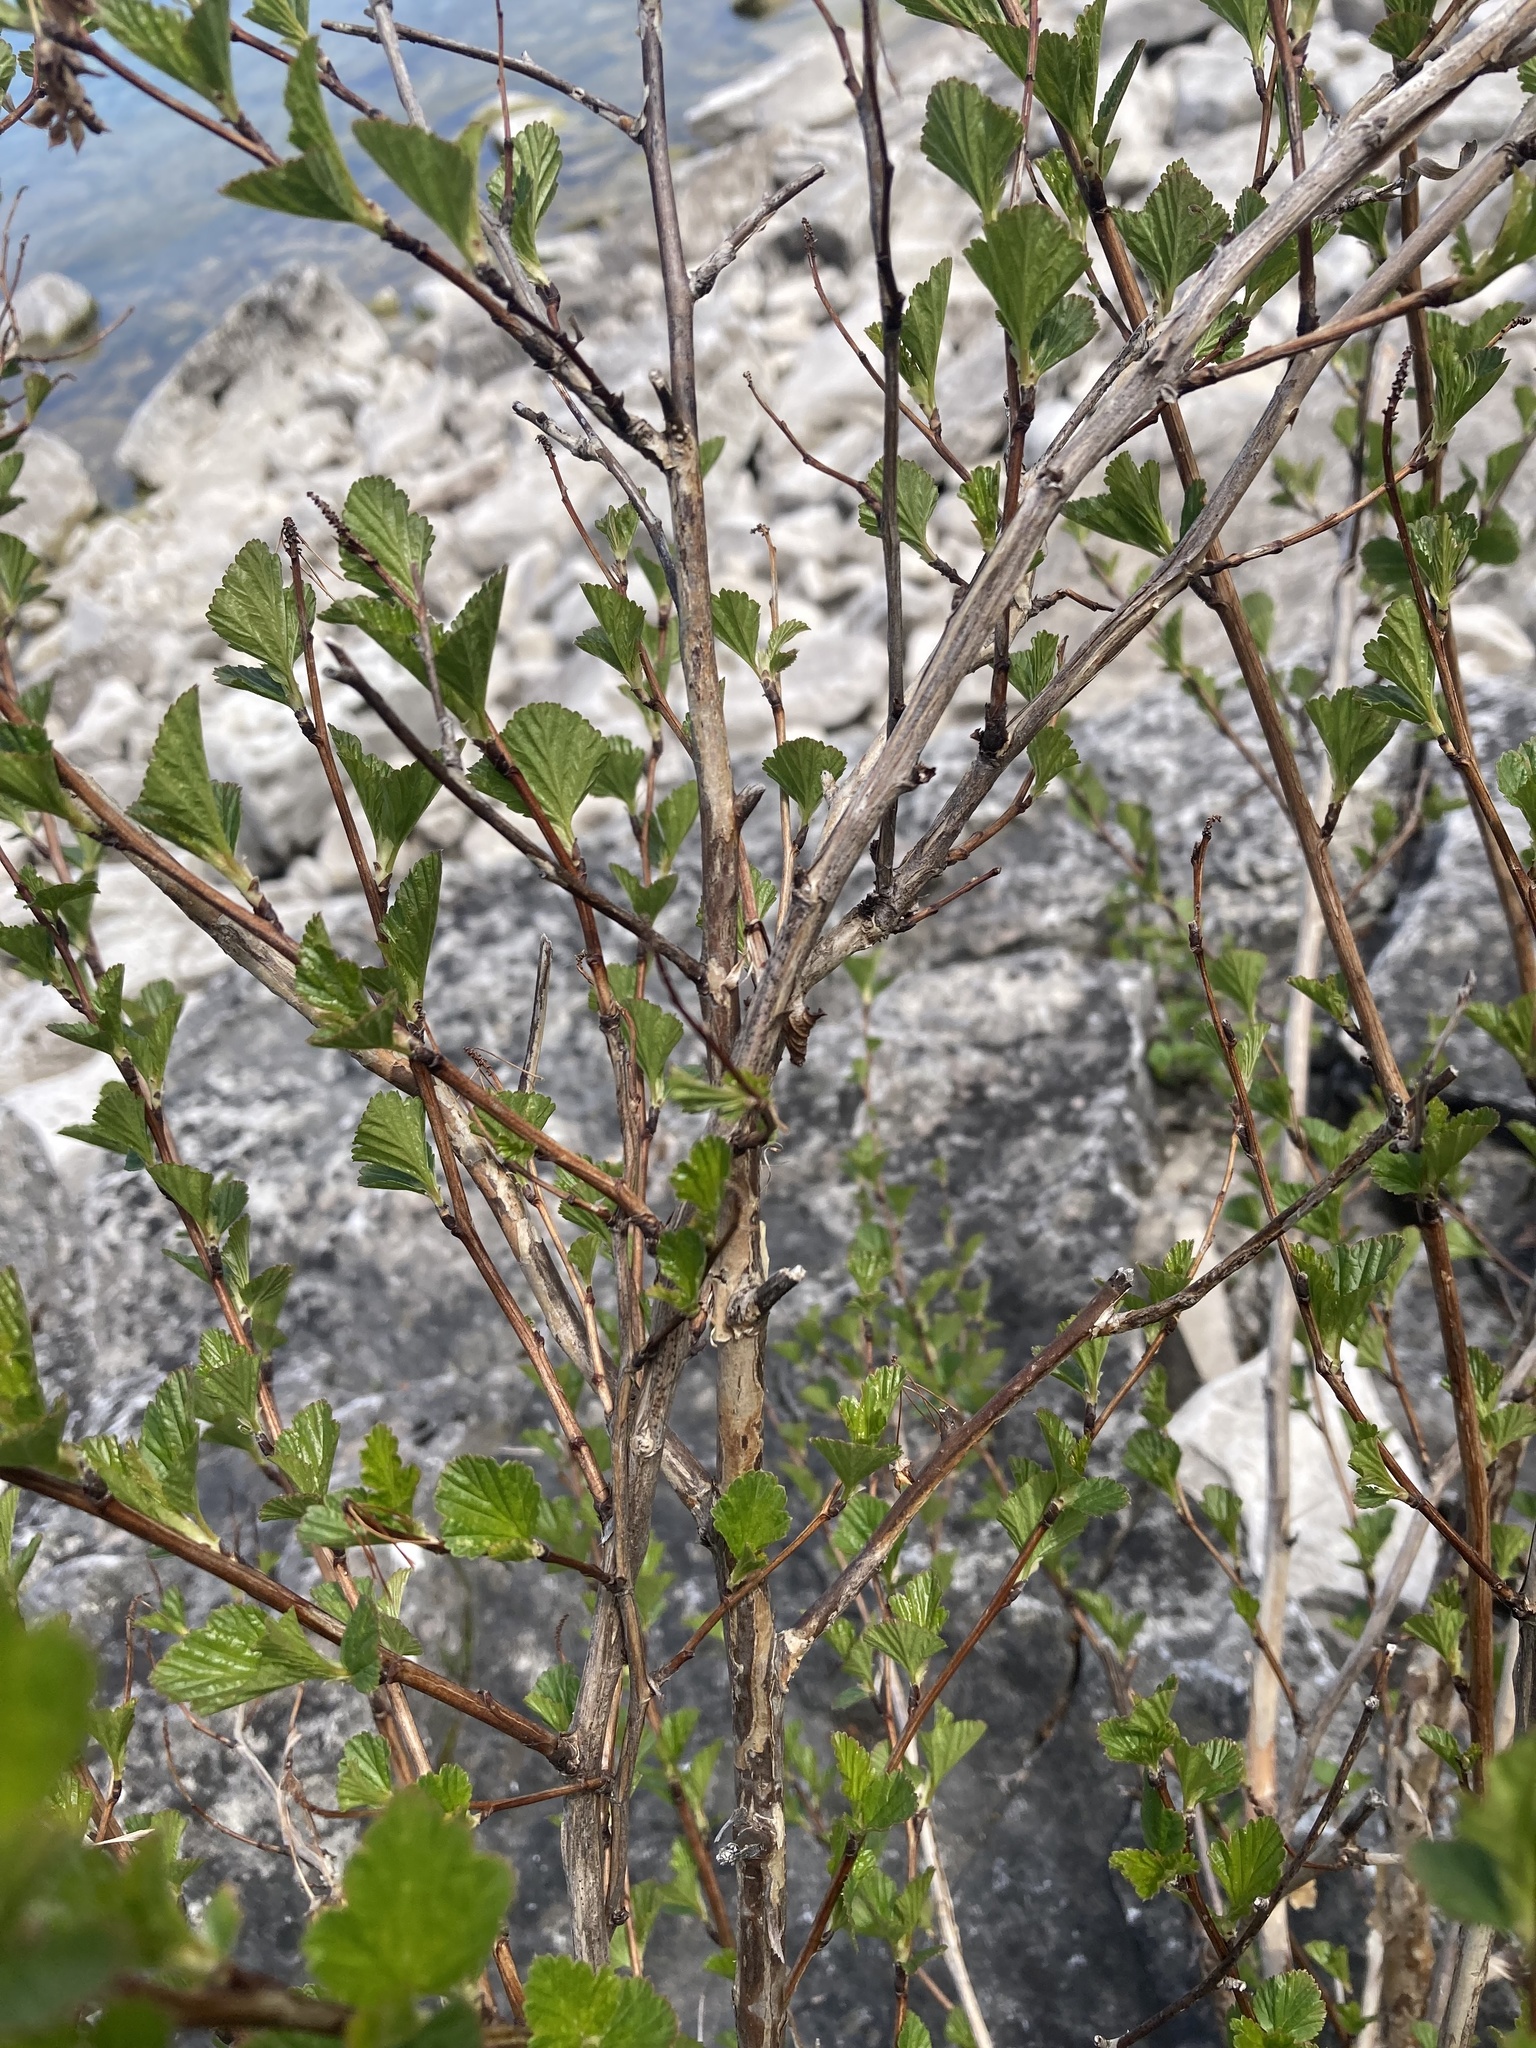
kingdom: Plantae
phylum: Tracheophyta
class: Magnoliopsida
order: Rosales
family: Rosaceae
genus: Physocarpus
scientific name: Physocarpus opulifolius
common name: Ninebark
